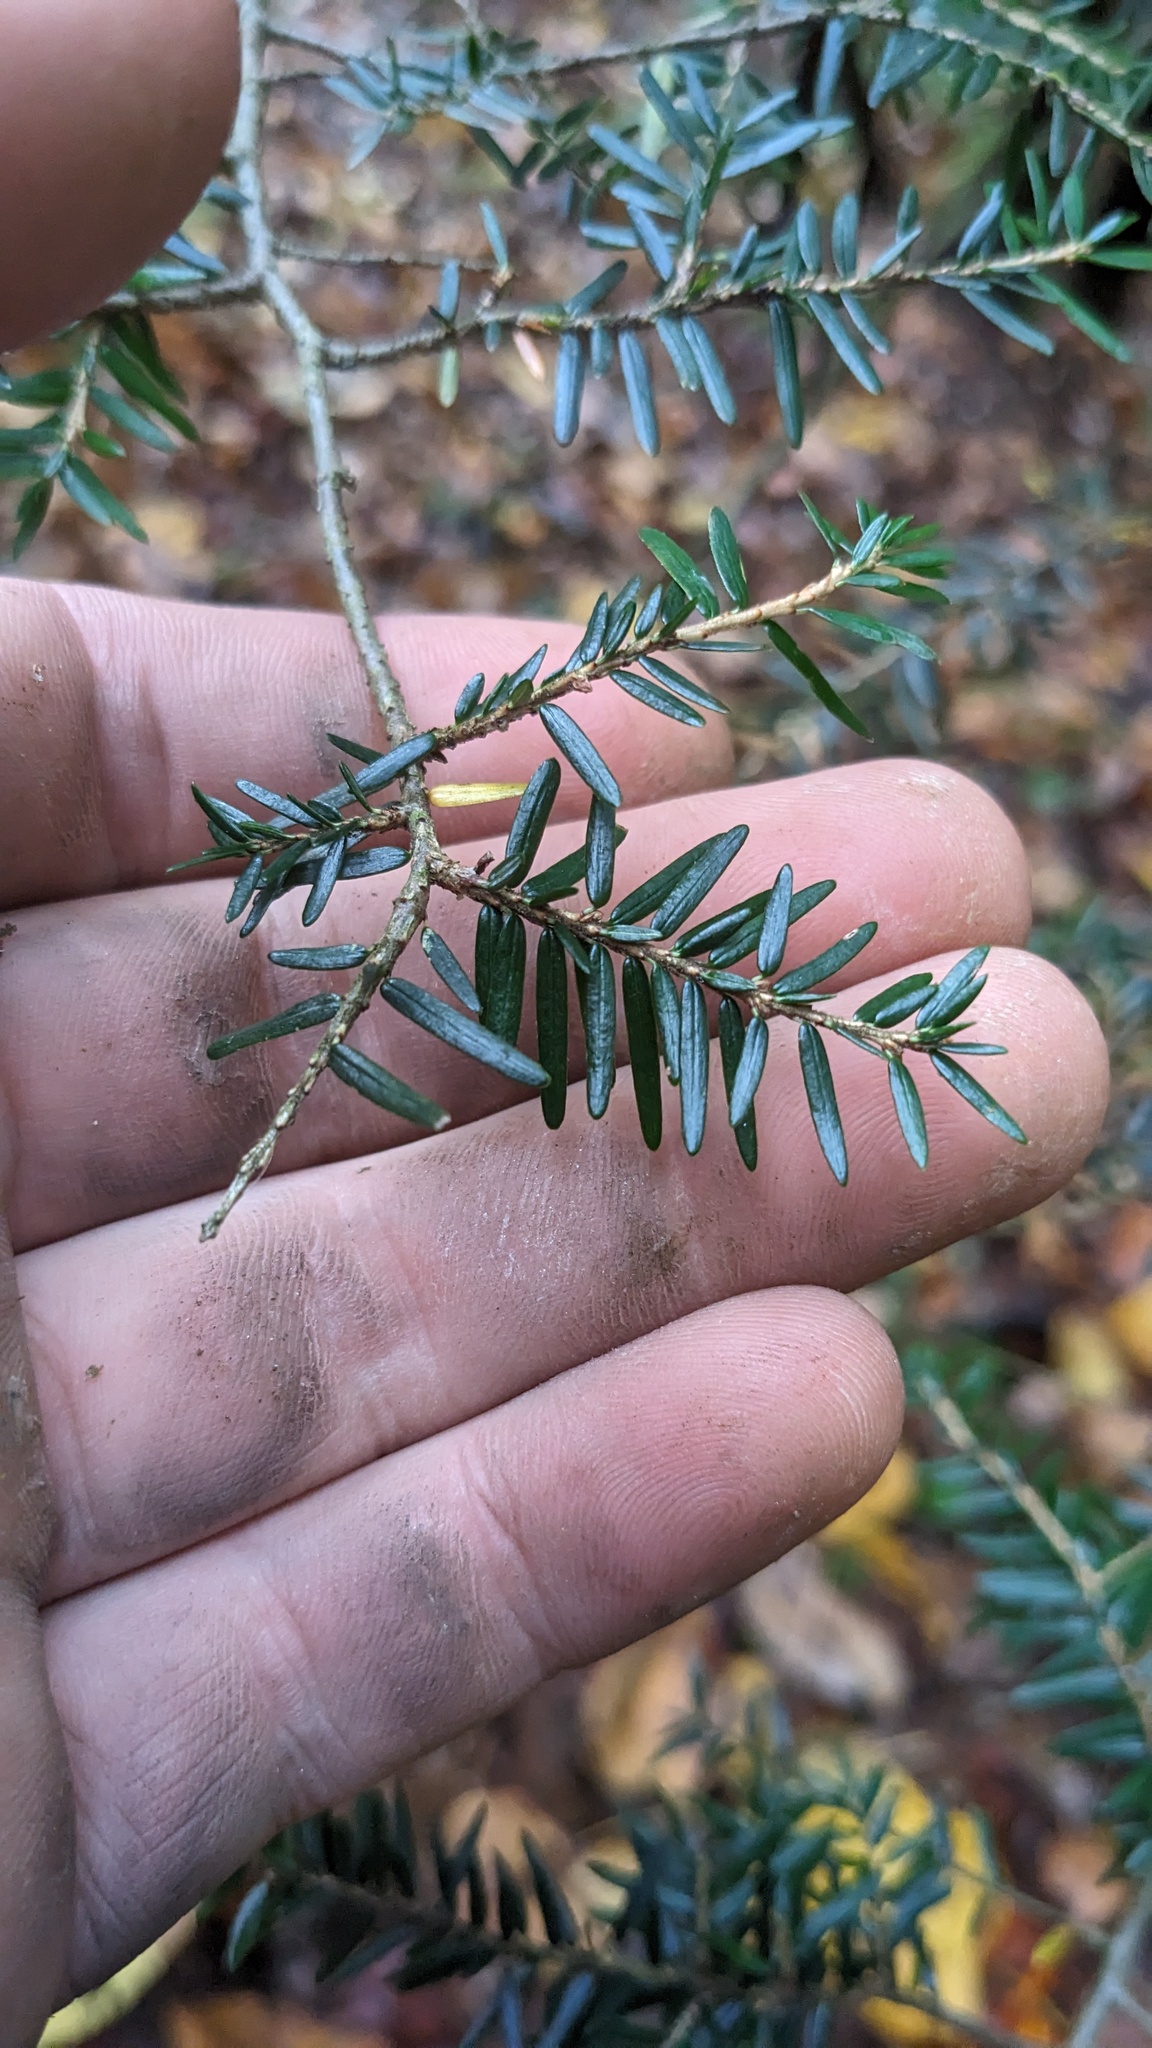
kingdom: Plantae
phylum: Tracheophyta
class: Pinopsida
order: Pinales
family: Pinaceae
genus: Tsuga
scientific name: Tsuga canadensis
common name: Eastern hemlock
